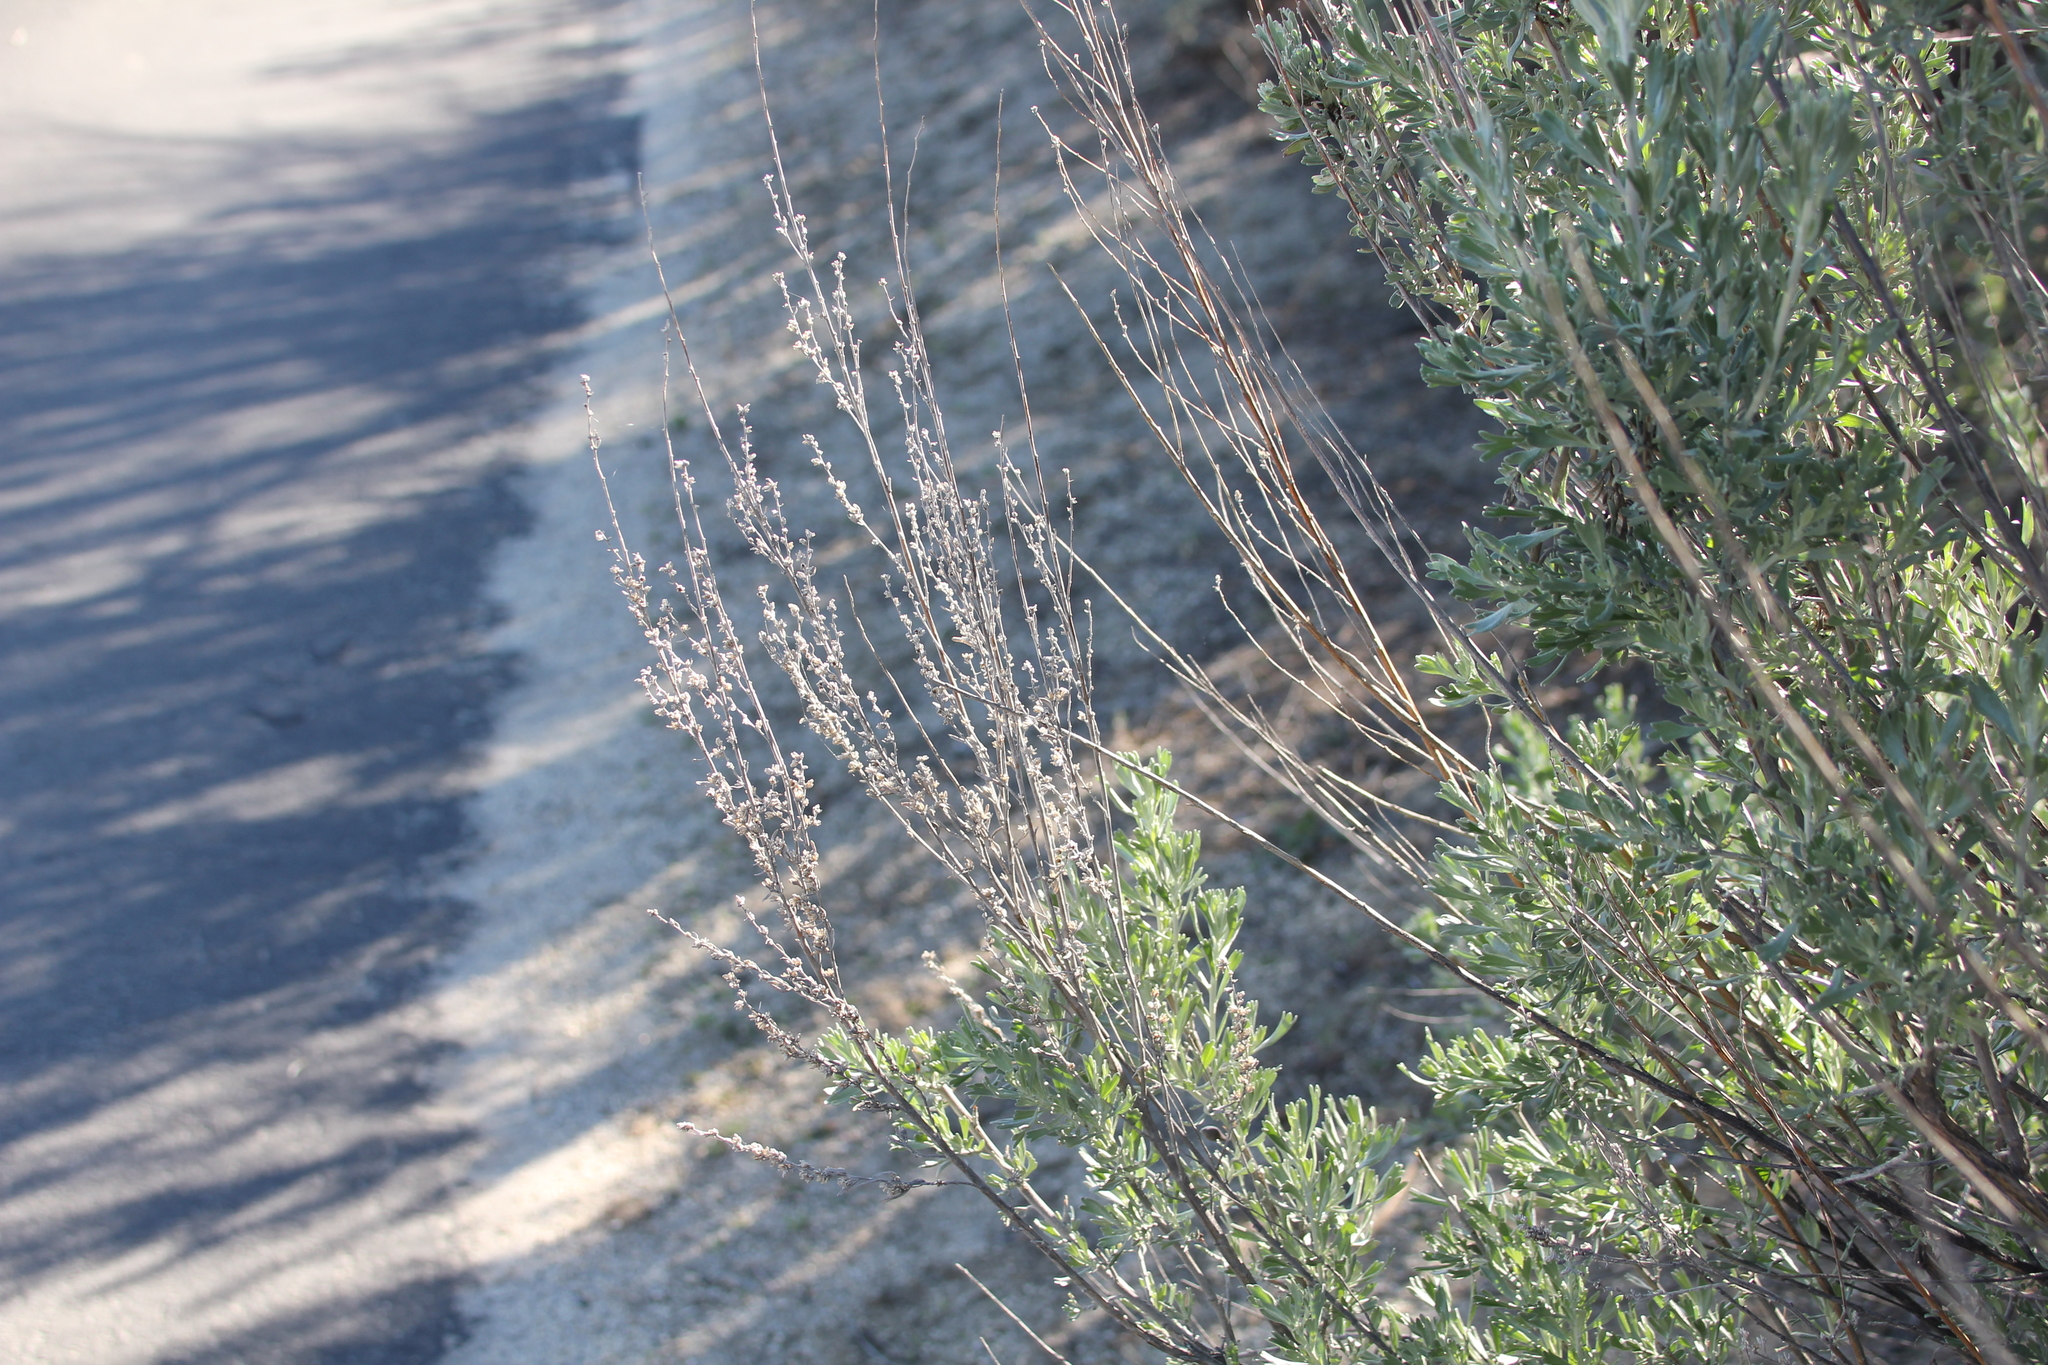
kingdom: Plantae
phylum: Tracheophyta
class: Magnoliopsida
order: Asterales
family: Asteraceae
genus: Artemisia
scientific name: Artemisia tridentata
